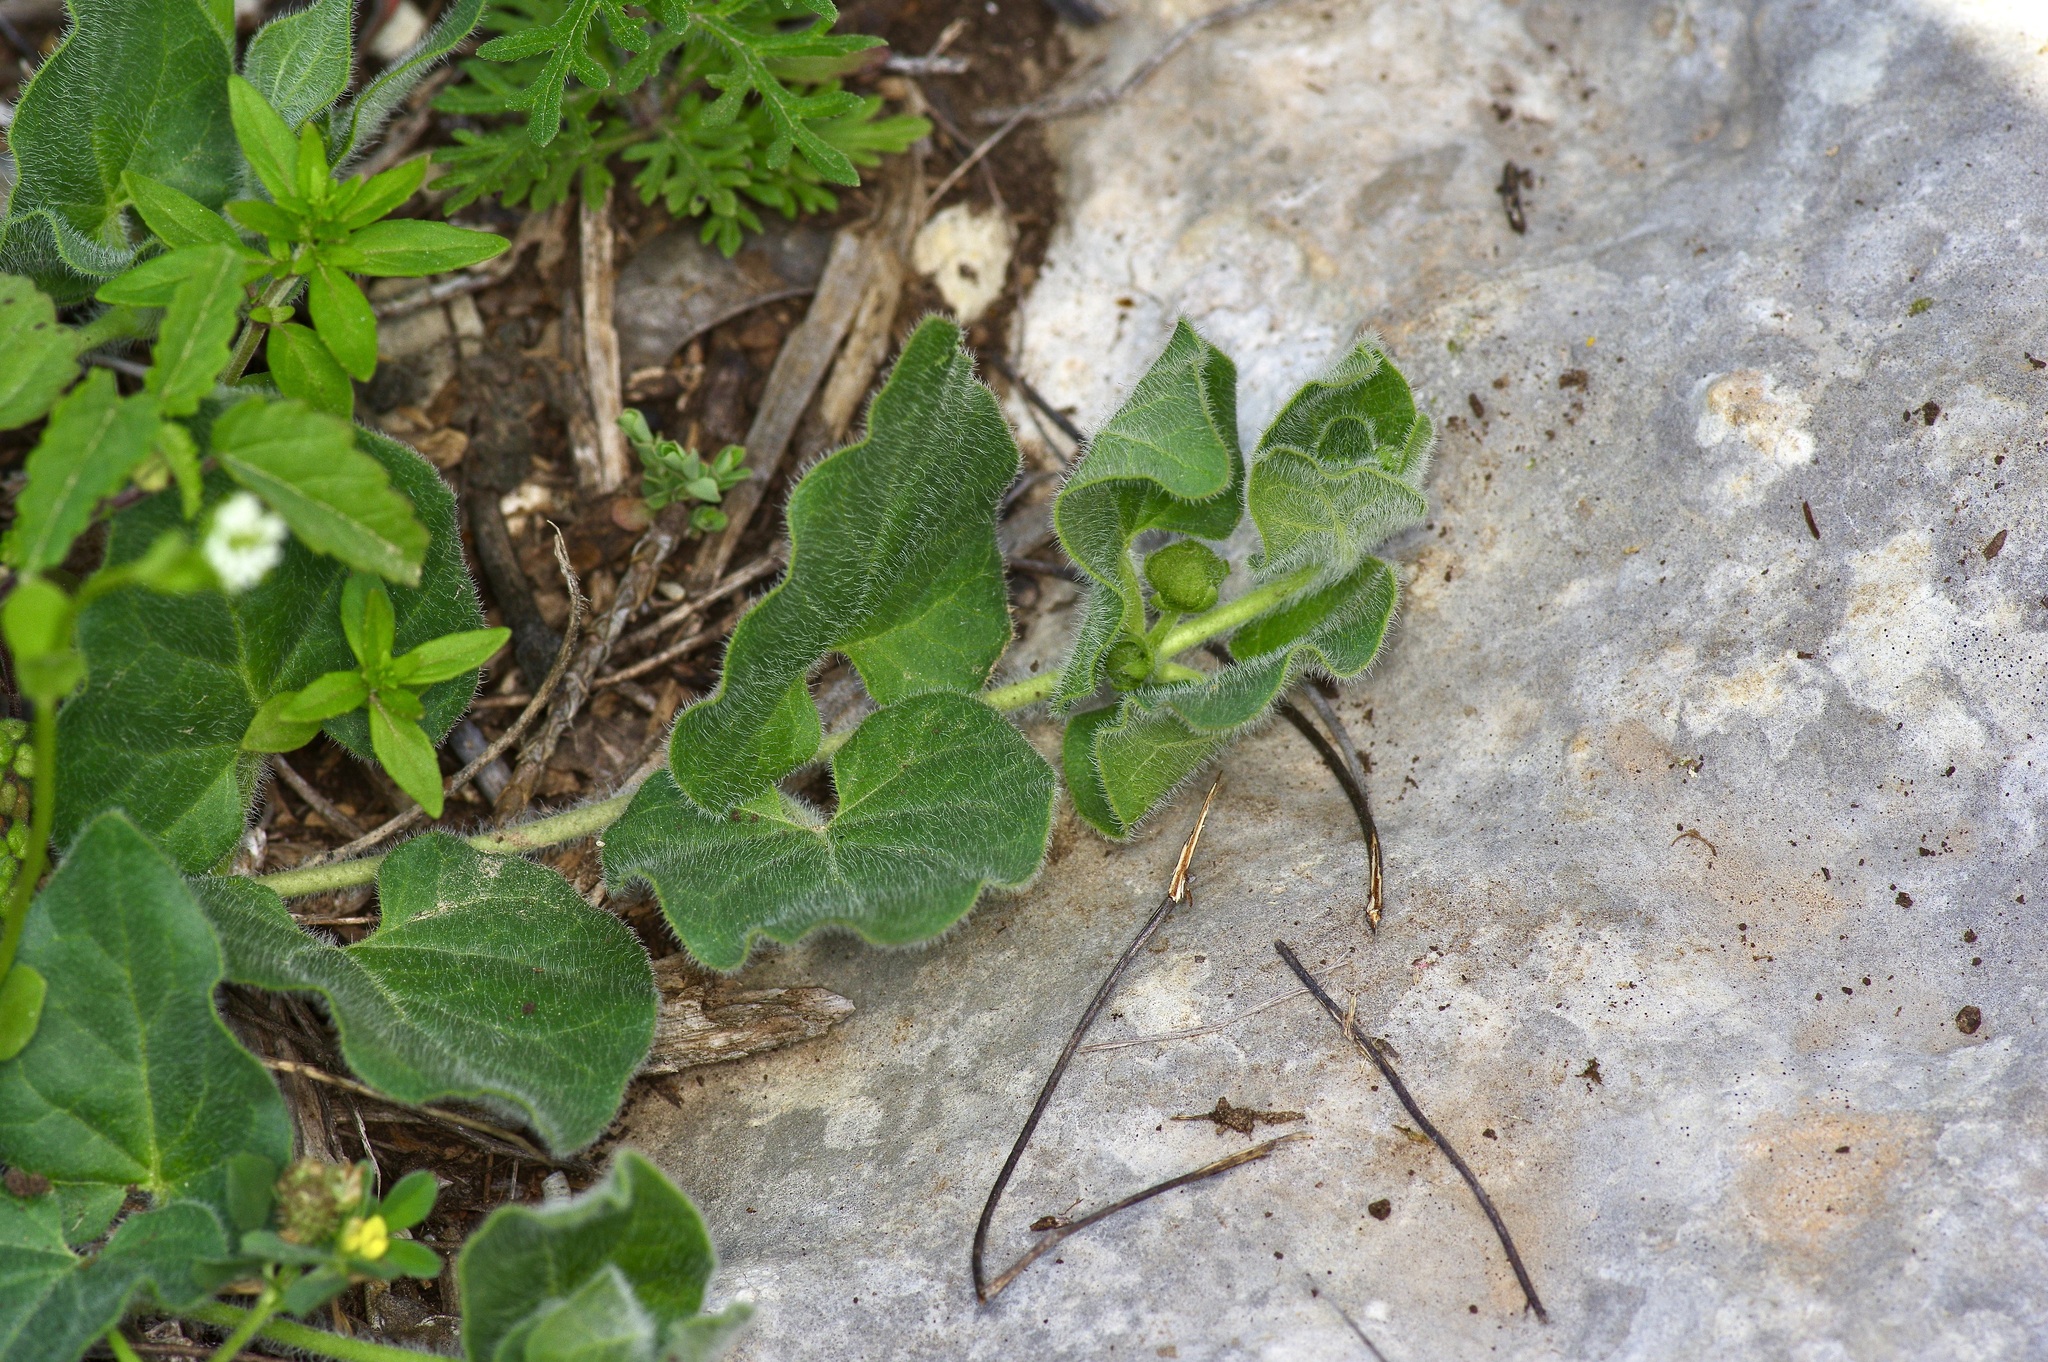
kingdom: Plantae
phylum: Tracheophyta
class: Magnoliopsida
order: Gentianales
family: Apocynaceae
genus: Chthamalia
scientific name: Chthamalia biflora
